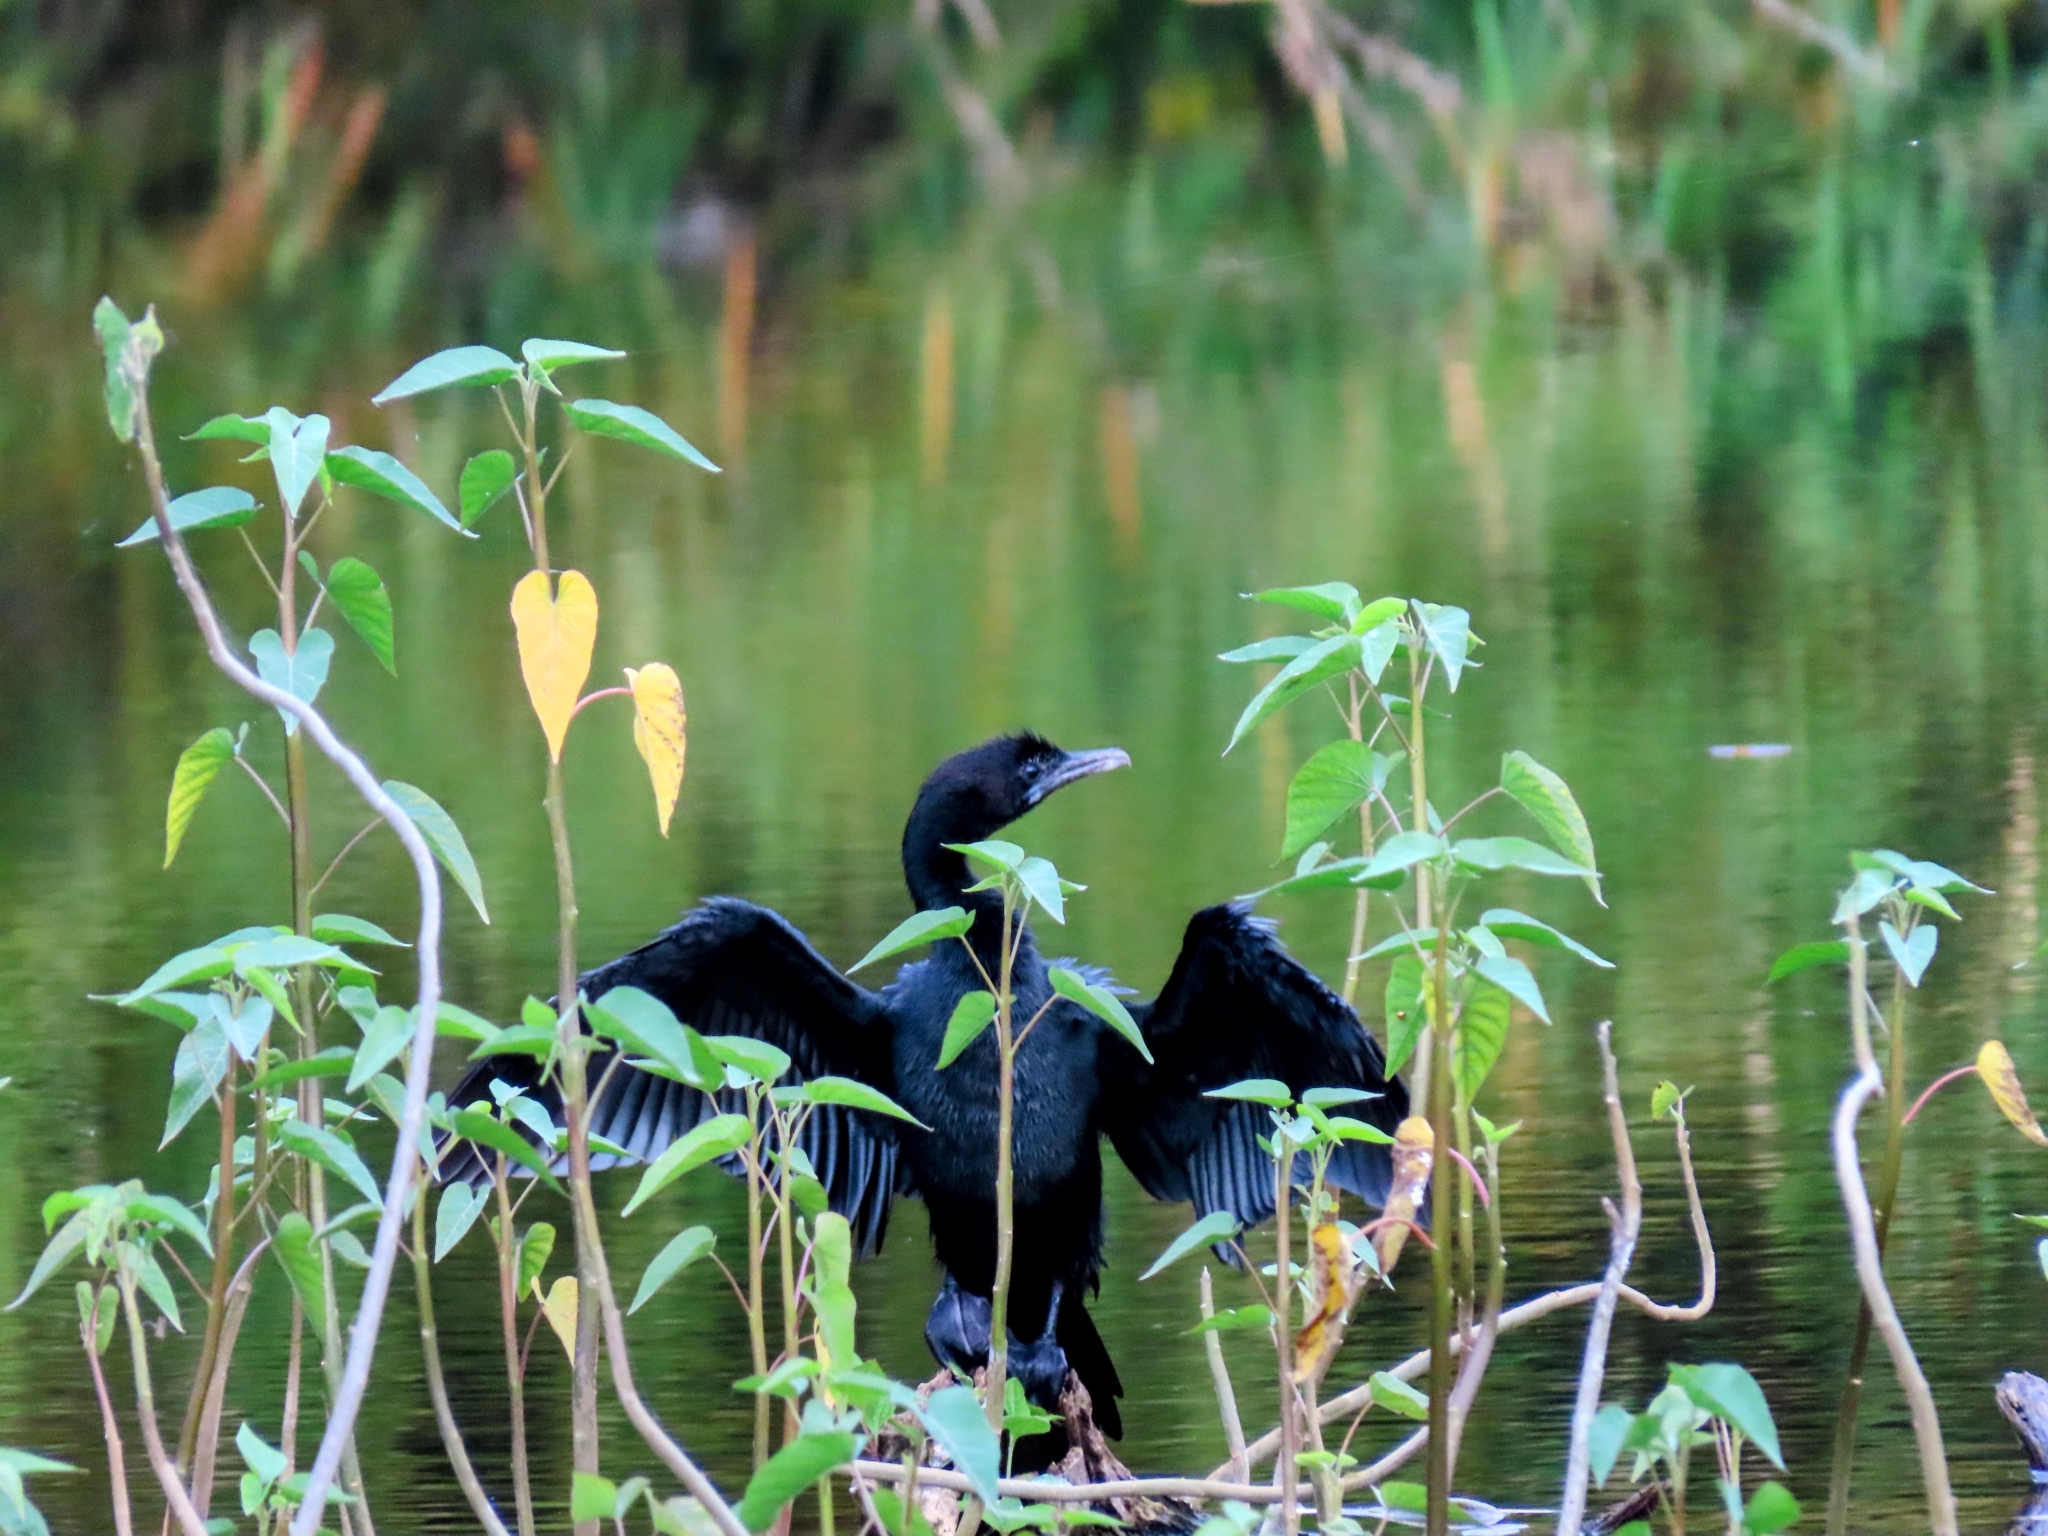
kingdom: Animalia
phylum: Chordata
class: Aves
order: Suliformes
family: Phalacrocoracidae
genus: Microcarbo
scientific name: Microcarbo niger
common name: Little cormorant
